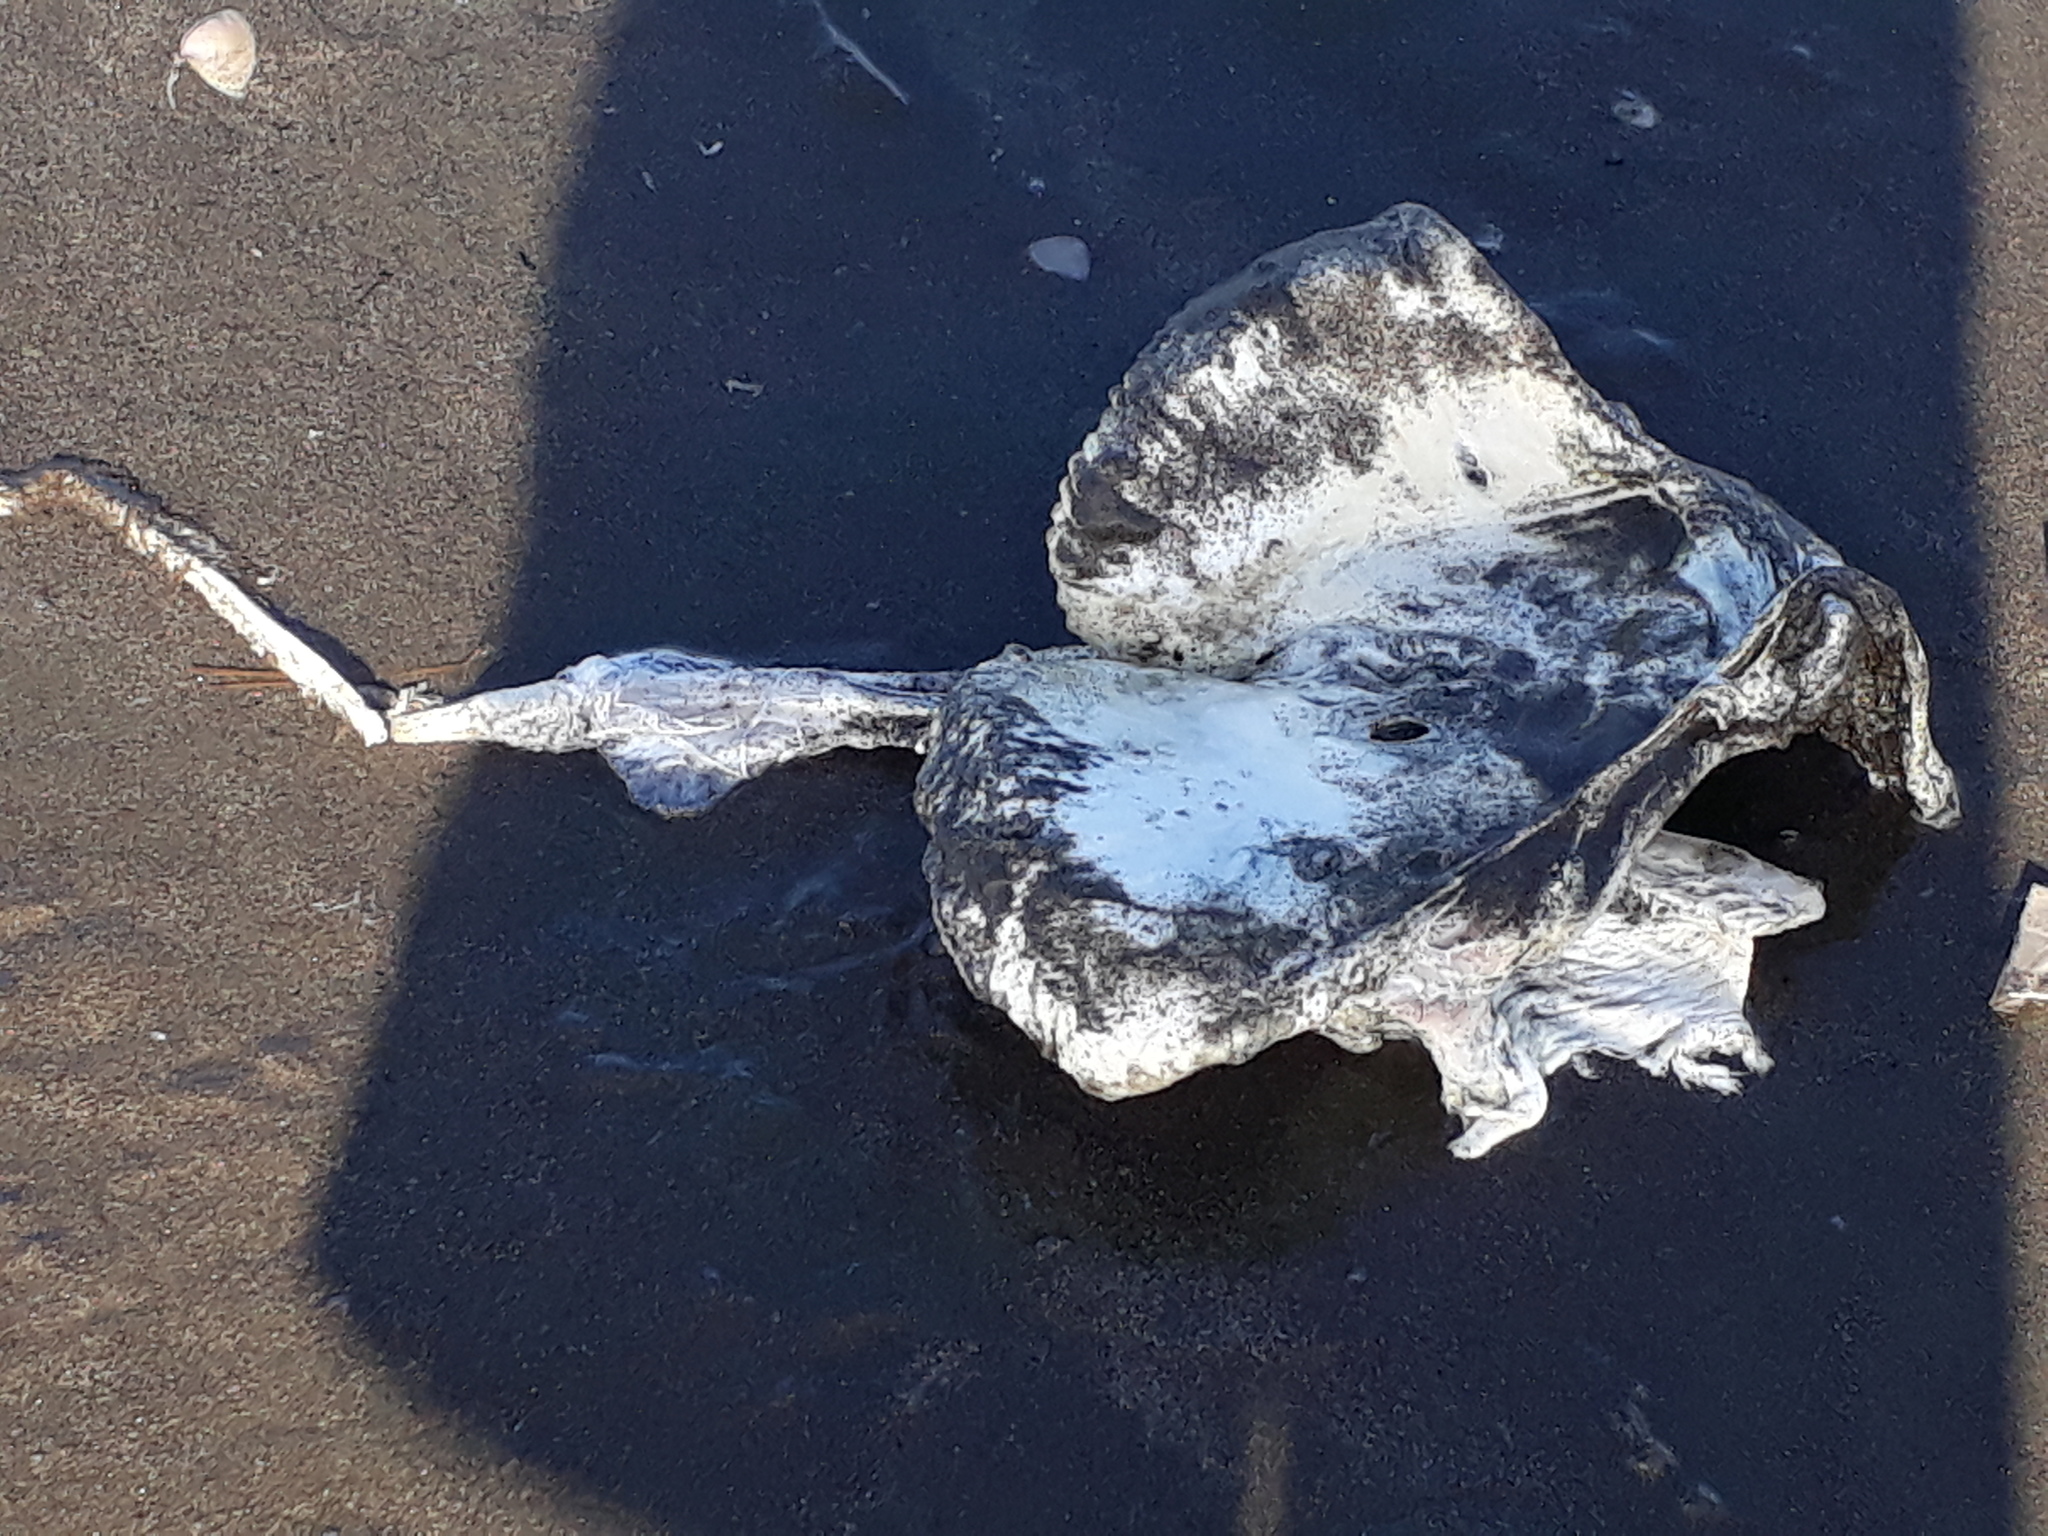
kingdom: Animalia
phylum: Chordata
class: Elasmobranchii
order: Myliobatiformes
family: Myliobatidae
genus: Myliobatis
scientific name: Myliobatis tenuicaudatus
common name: Eagle ray
